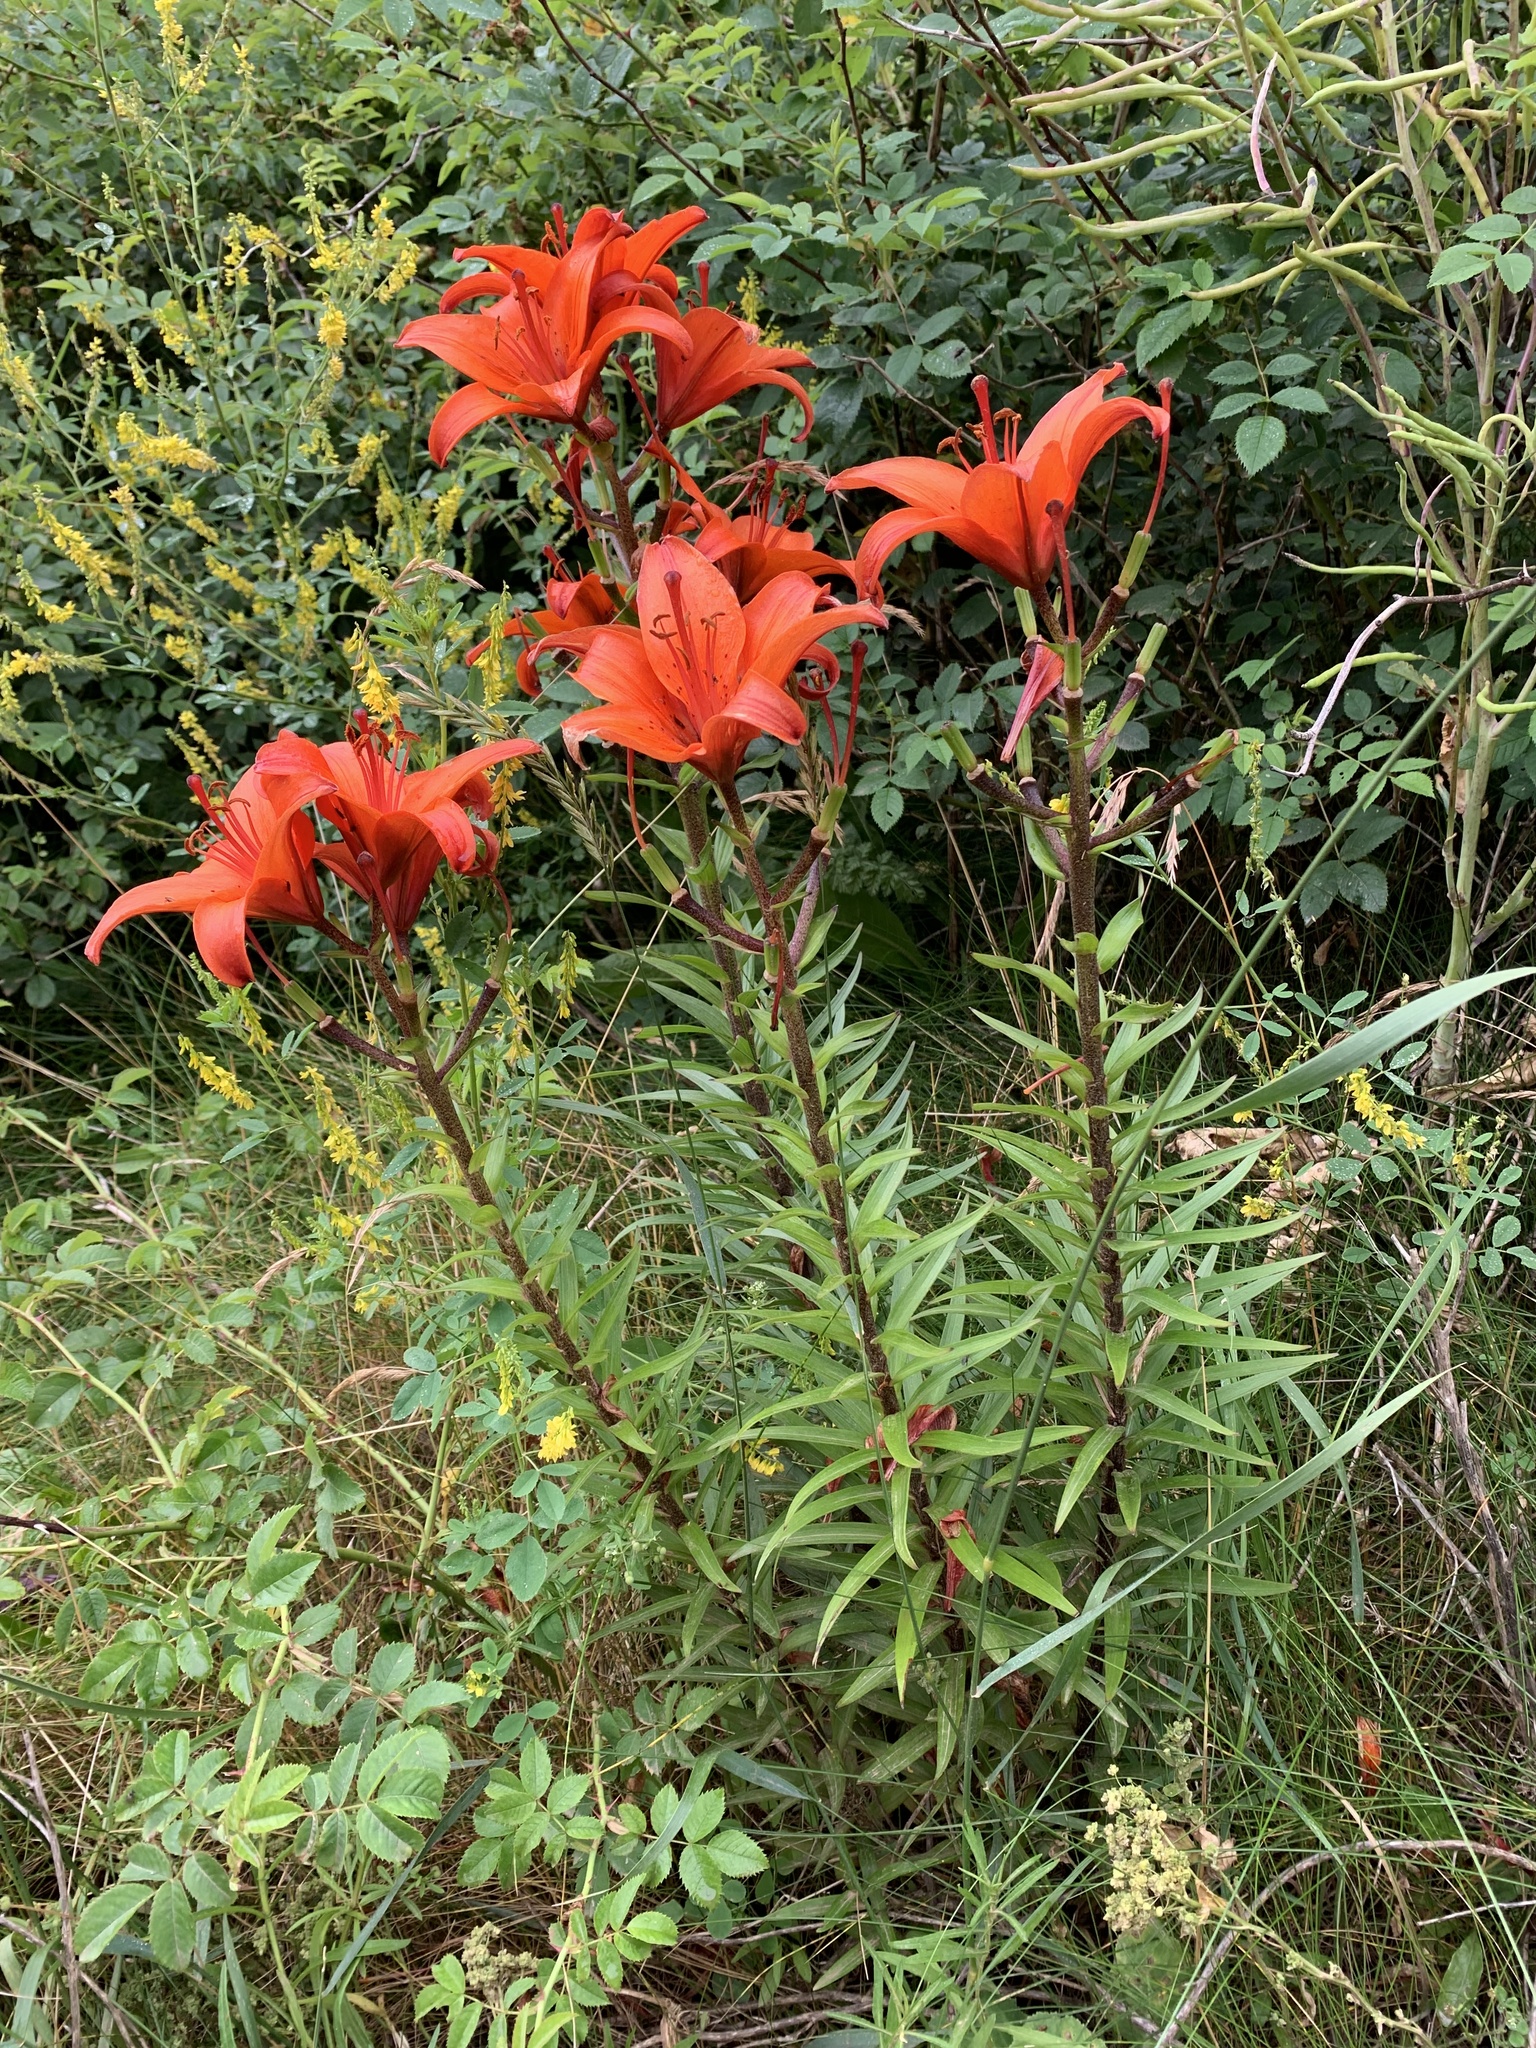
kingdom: Plantae
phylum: Tracheophyta
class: Liliopsida
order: Liliales
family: Liliaceae
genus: Lilium
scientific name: Lilium bulbiferum
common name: Orange lily
